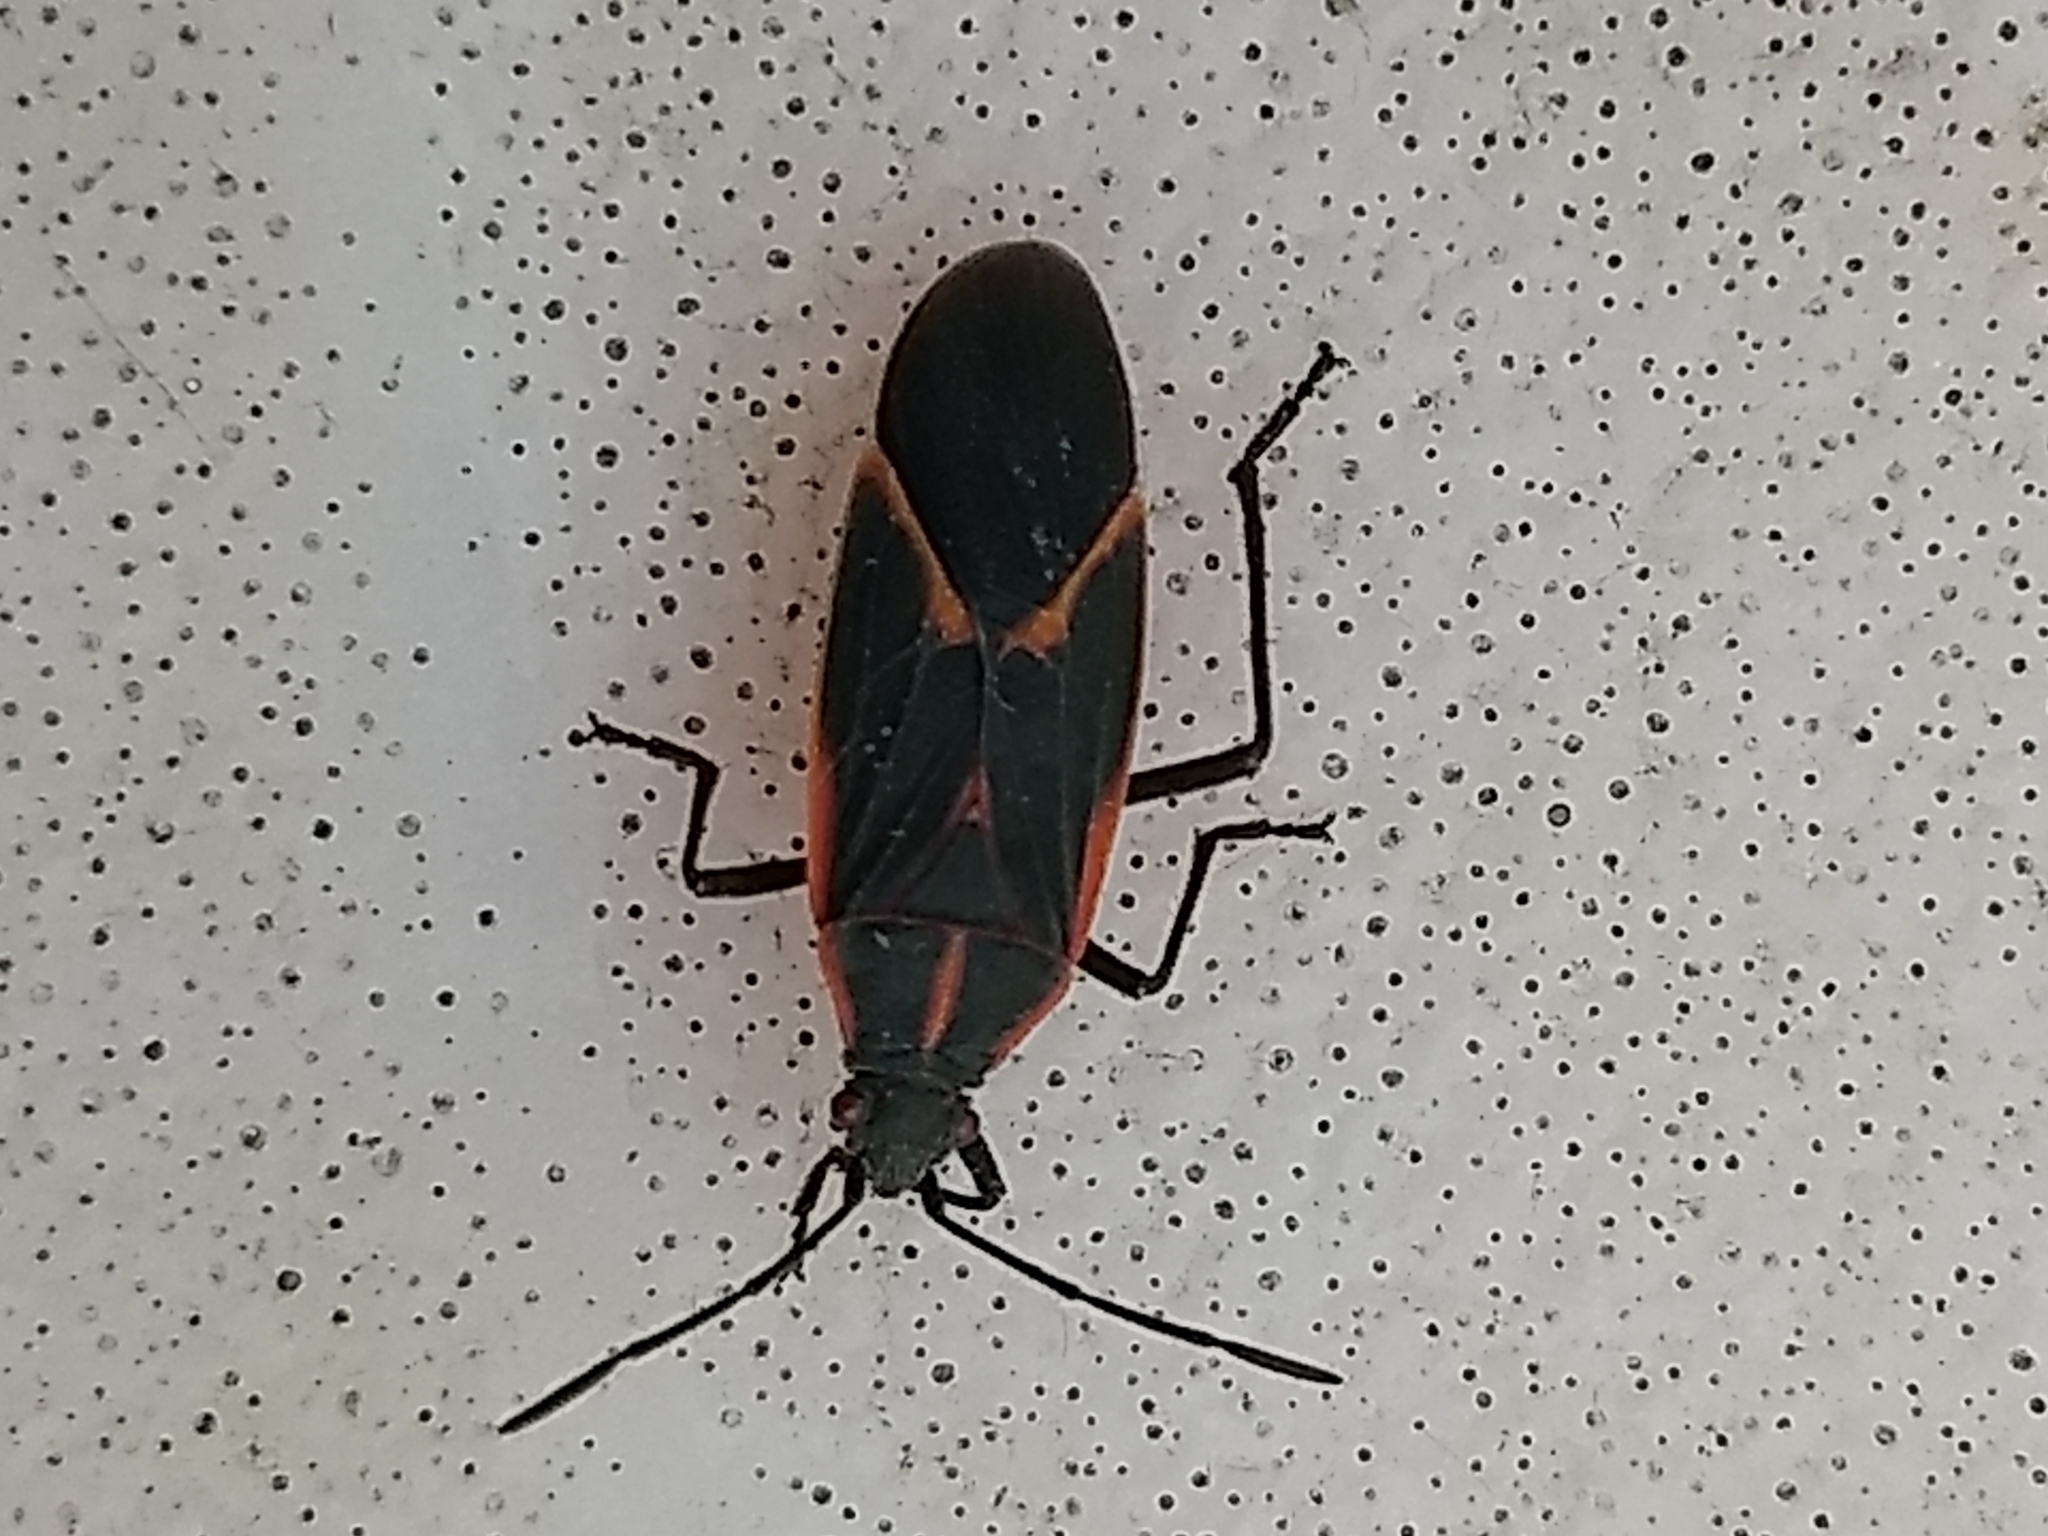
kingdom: Animalia
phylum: Arthropoda
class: Insecta
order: Hemiptera
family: Rhopalidae
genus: Boisea
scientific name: Boisea trivittata
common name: Boxelder bug
